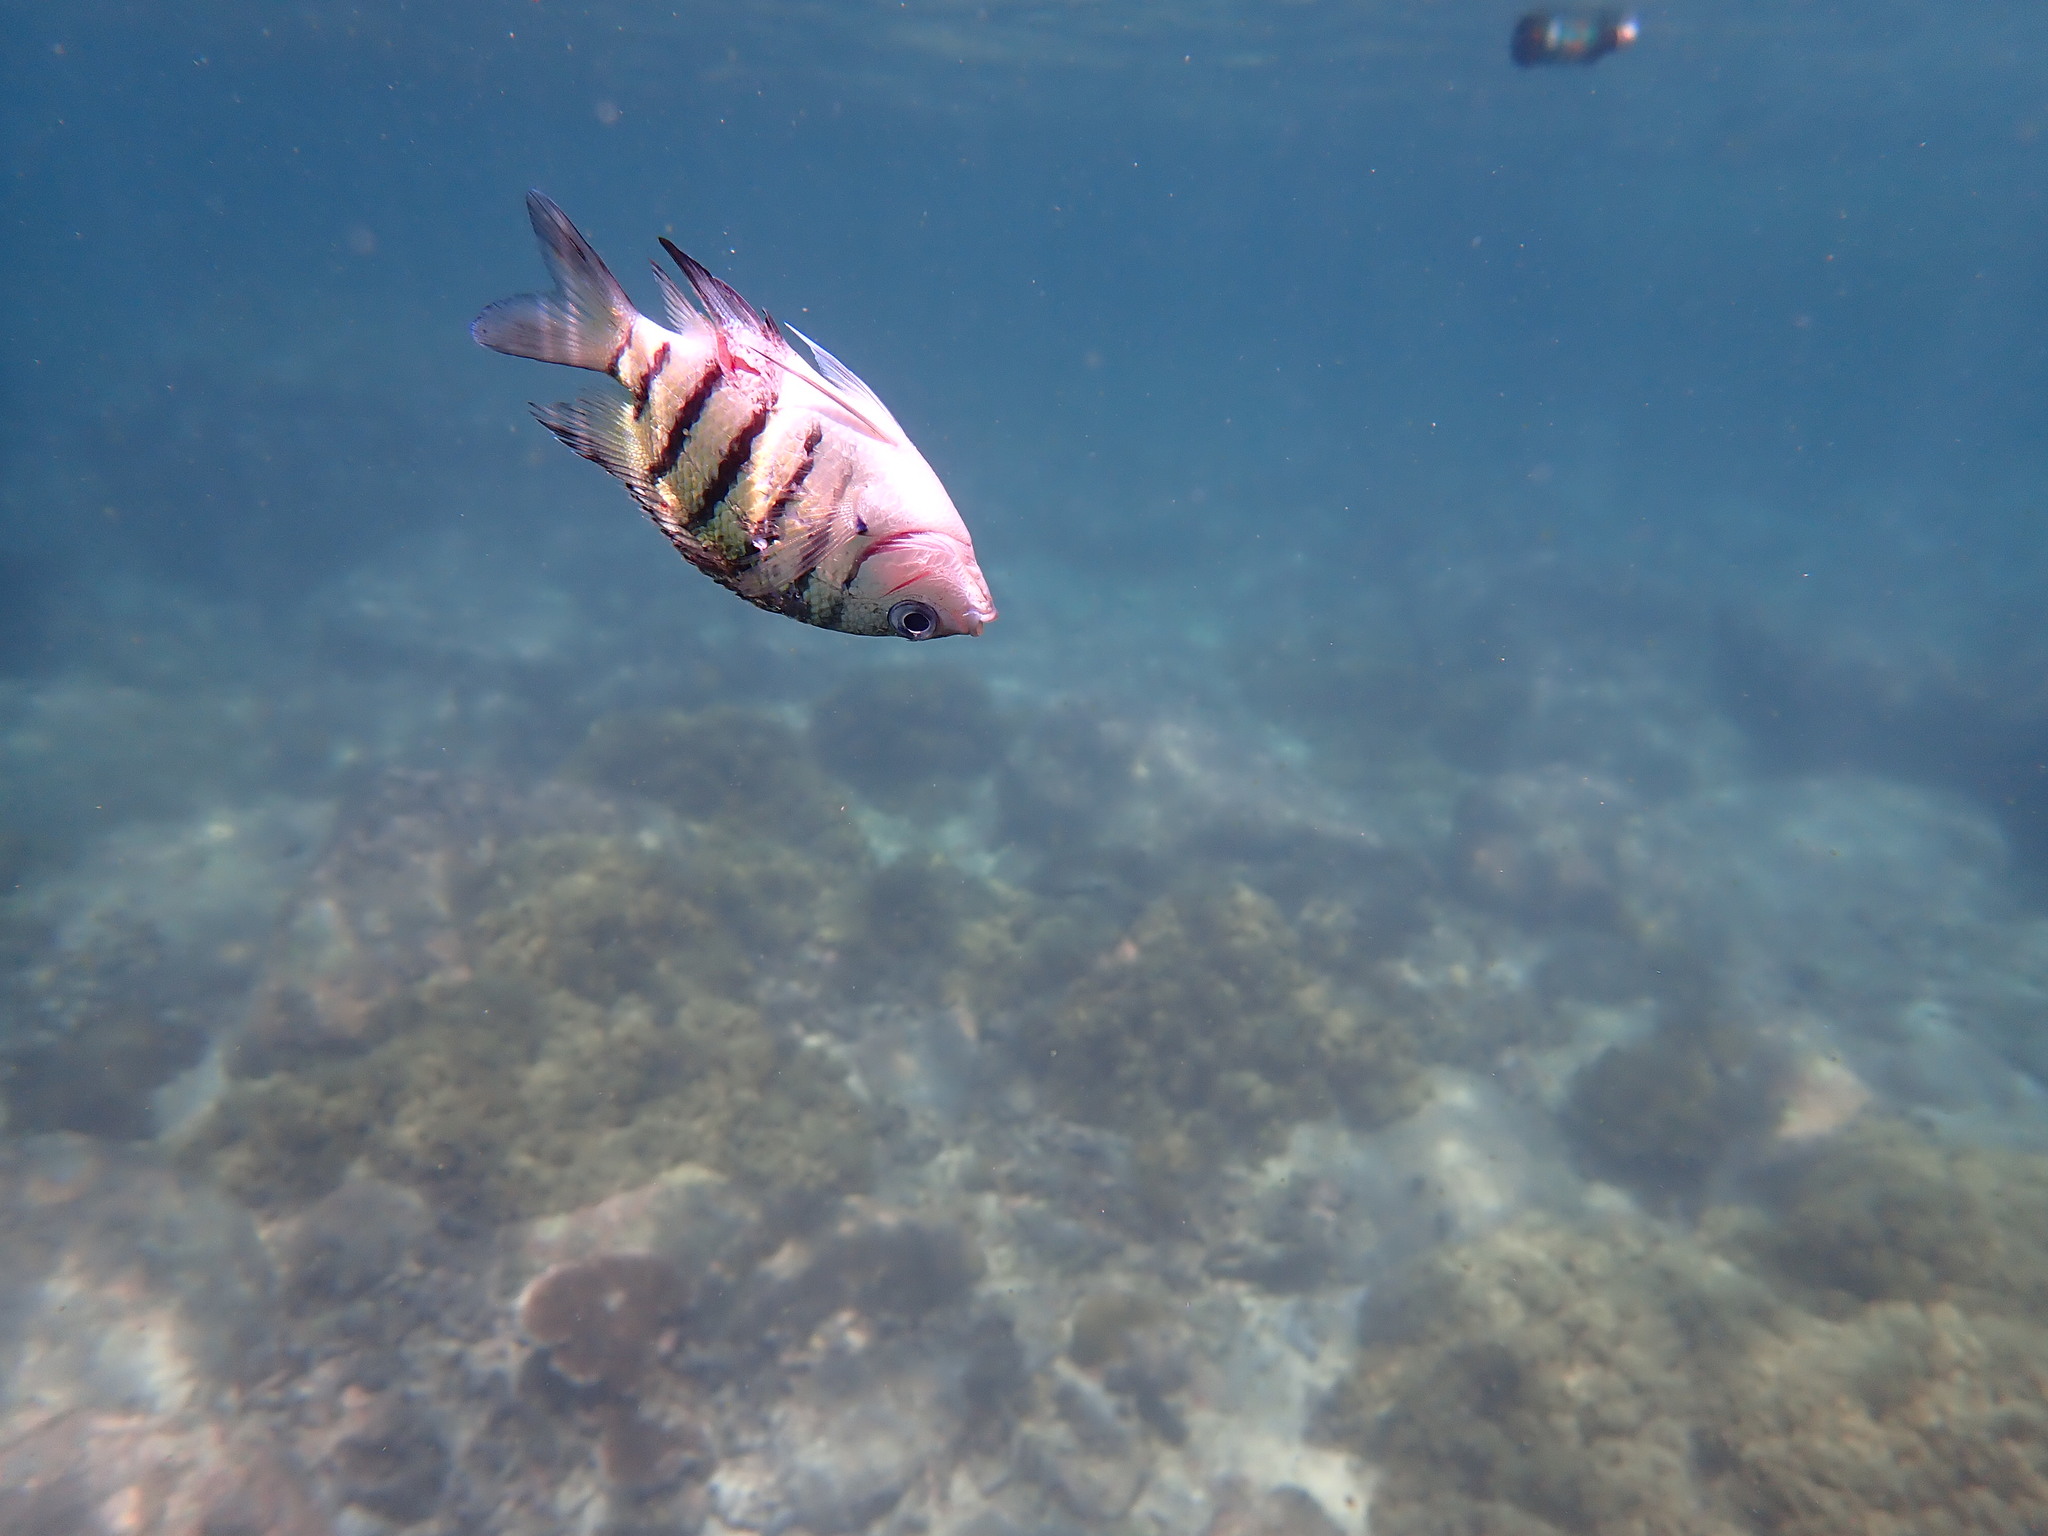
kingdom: Animalia
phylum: Chordata
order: Perciformes
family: Pomacentridae
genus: Abudefduf
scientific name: Abudefduf bengalensis
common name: Bengal sergeant
